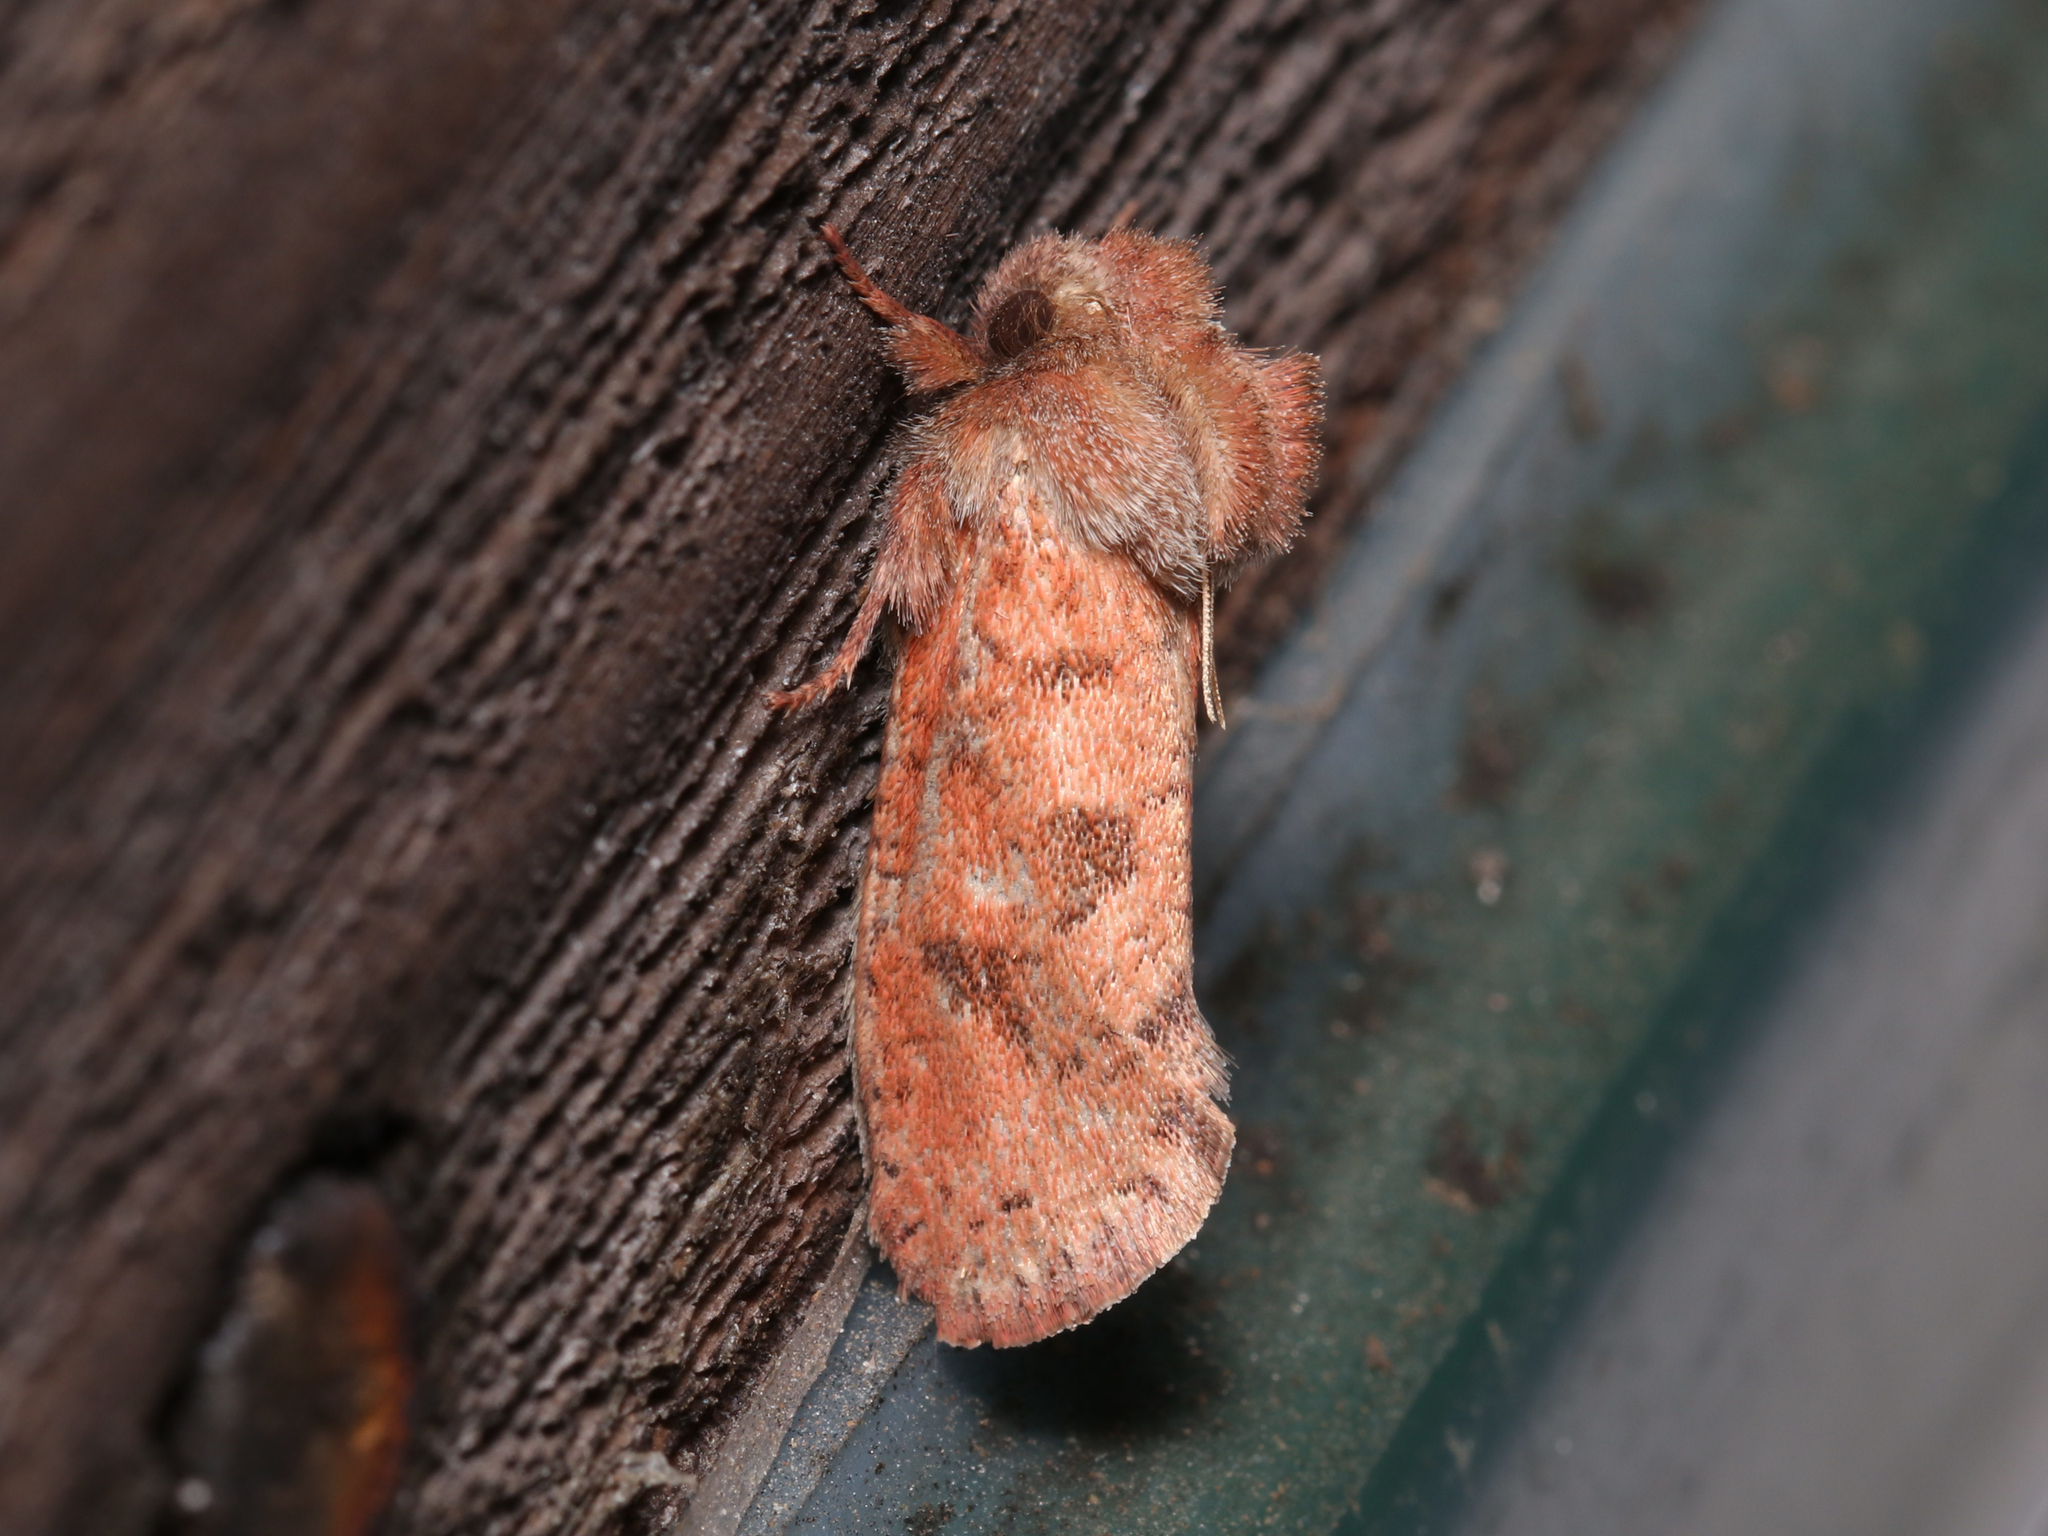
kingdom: Animalia
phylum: Arthropoda
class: Insecta
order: Lepidoptera
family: Tineidae
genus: Acrolophus
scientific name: Acrolophus plumifrontella
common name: Eastern grass tubeworm moth
